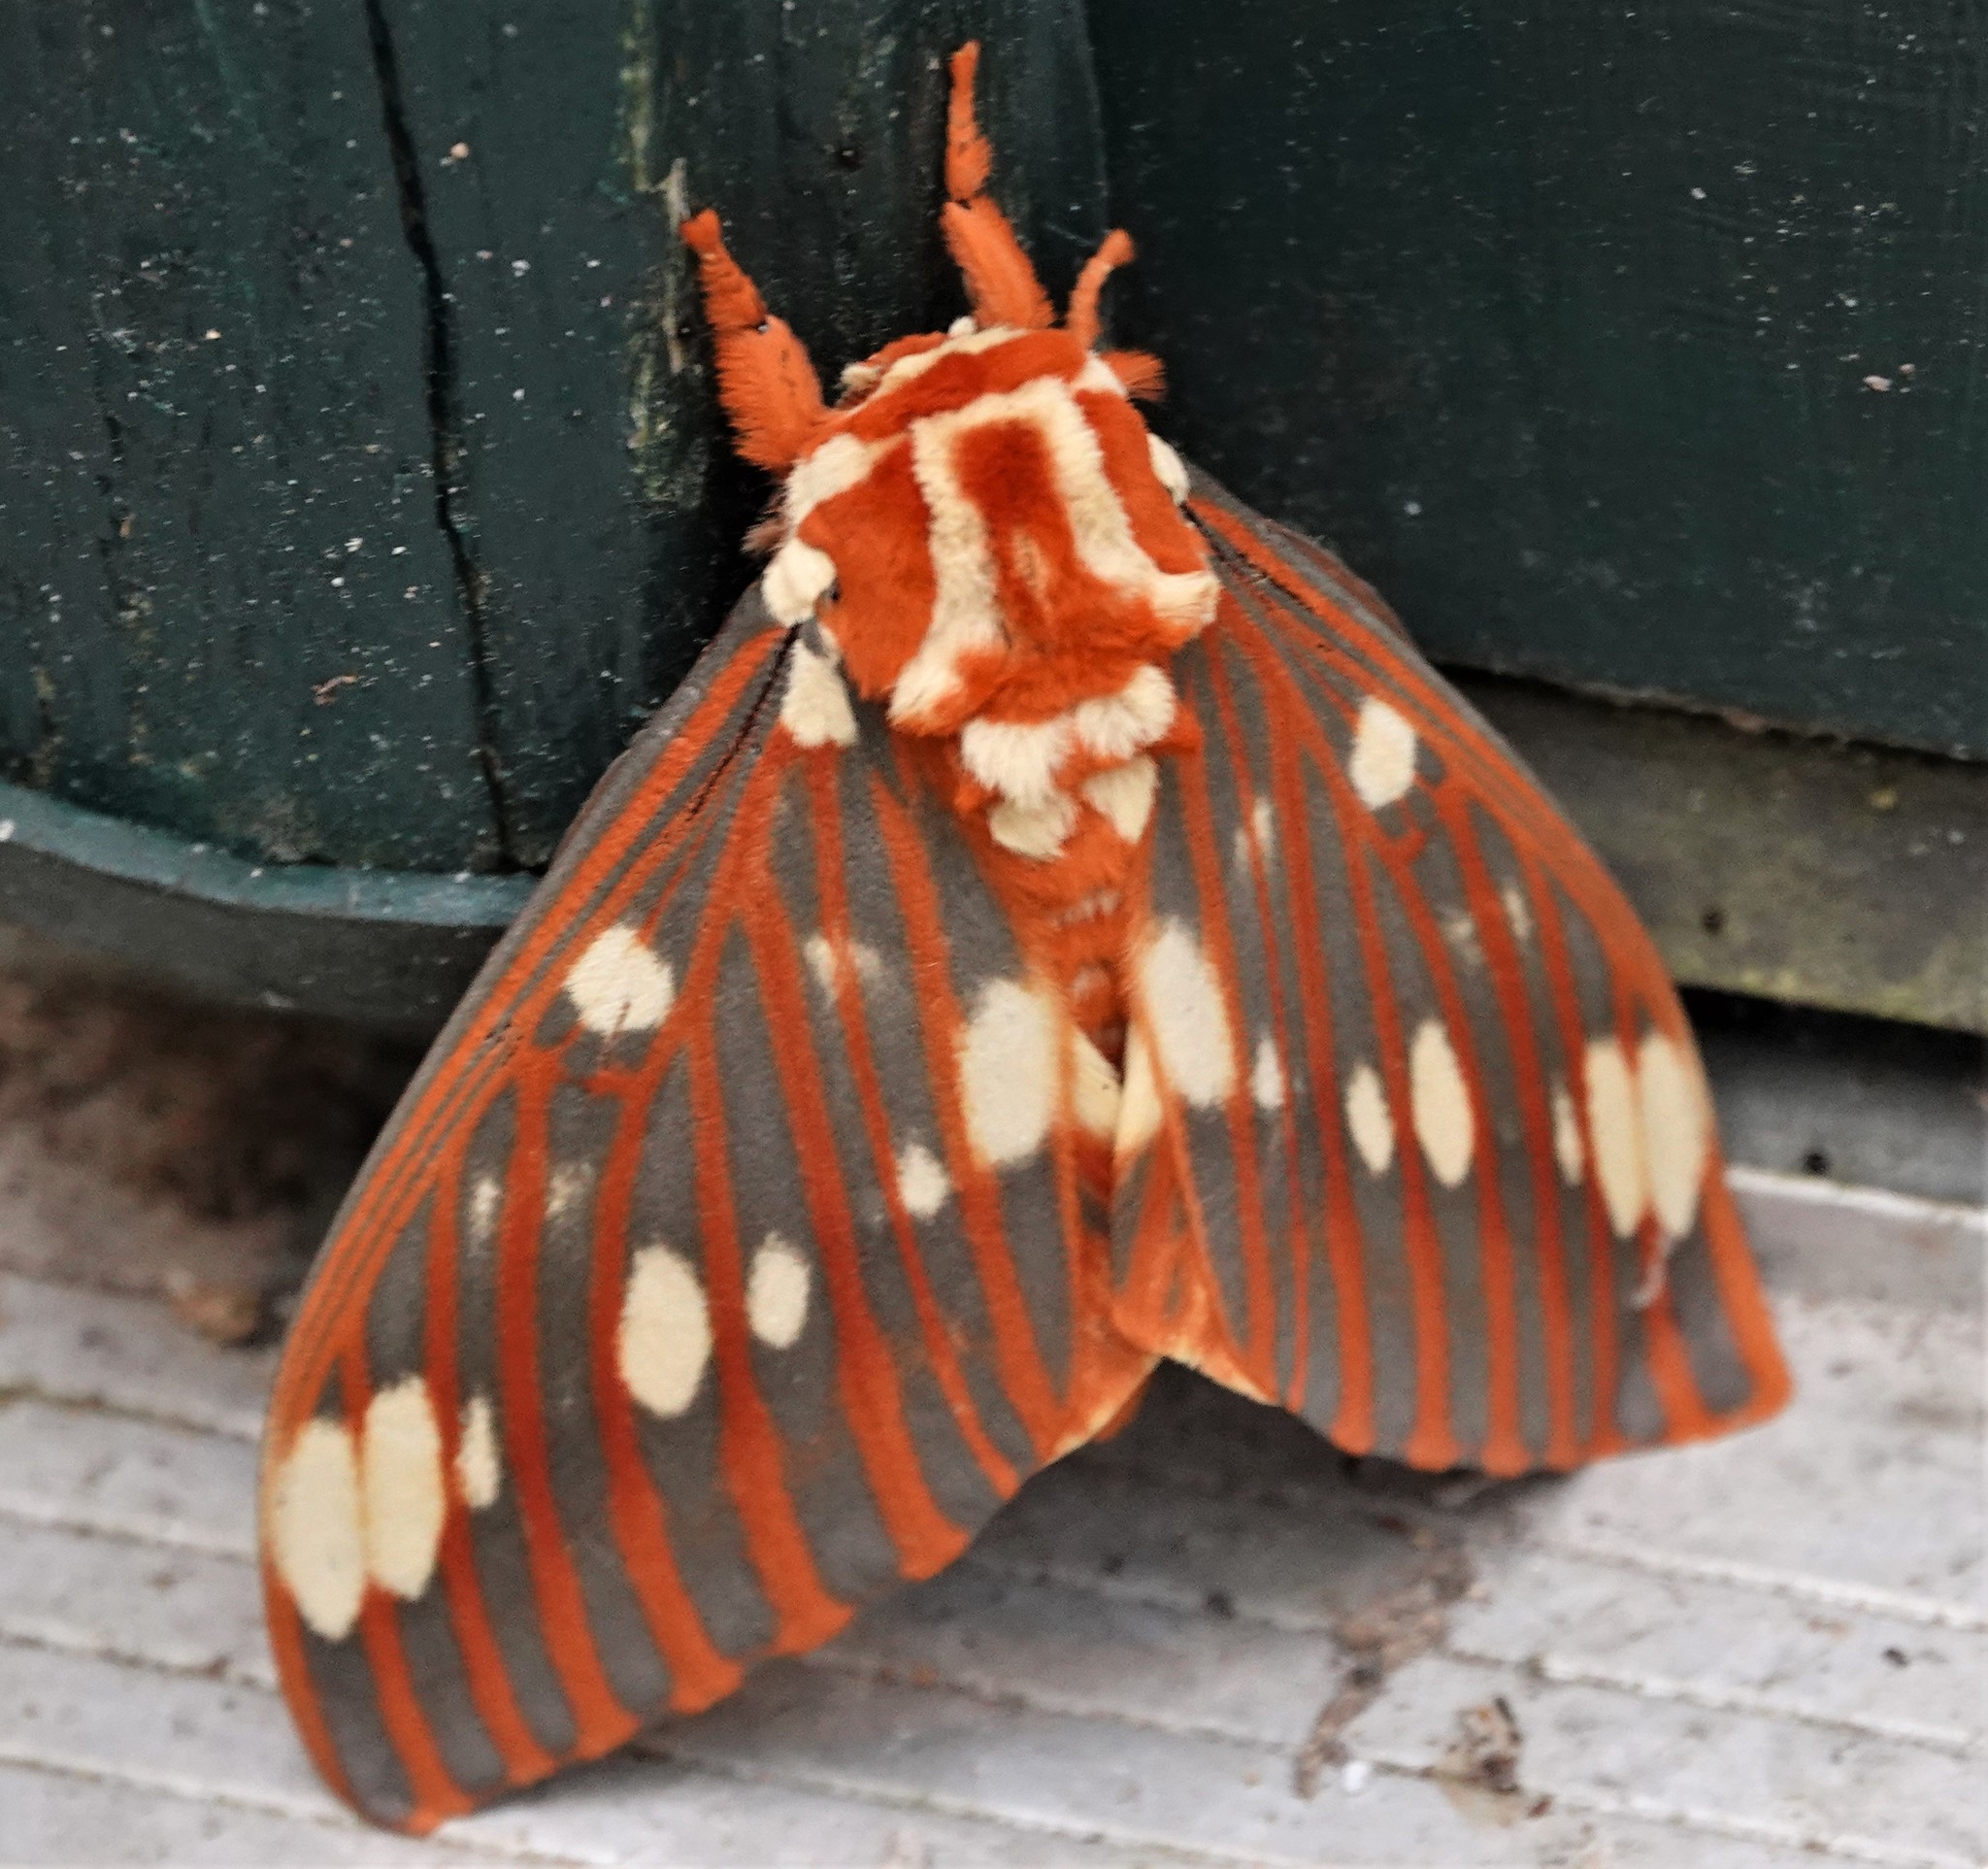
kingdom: Animalia
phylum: Arthropoda
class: Insecta
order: Lepidoptera
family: Saturniidae
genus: Citheronia
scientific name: Citheronia regalis
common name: Hickory horned devil
